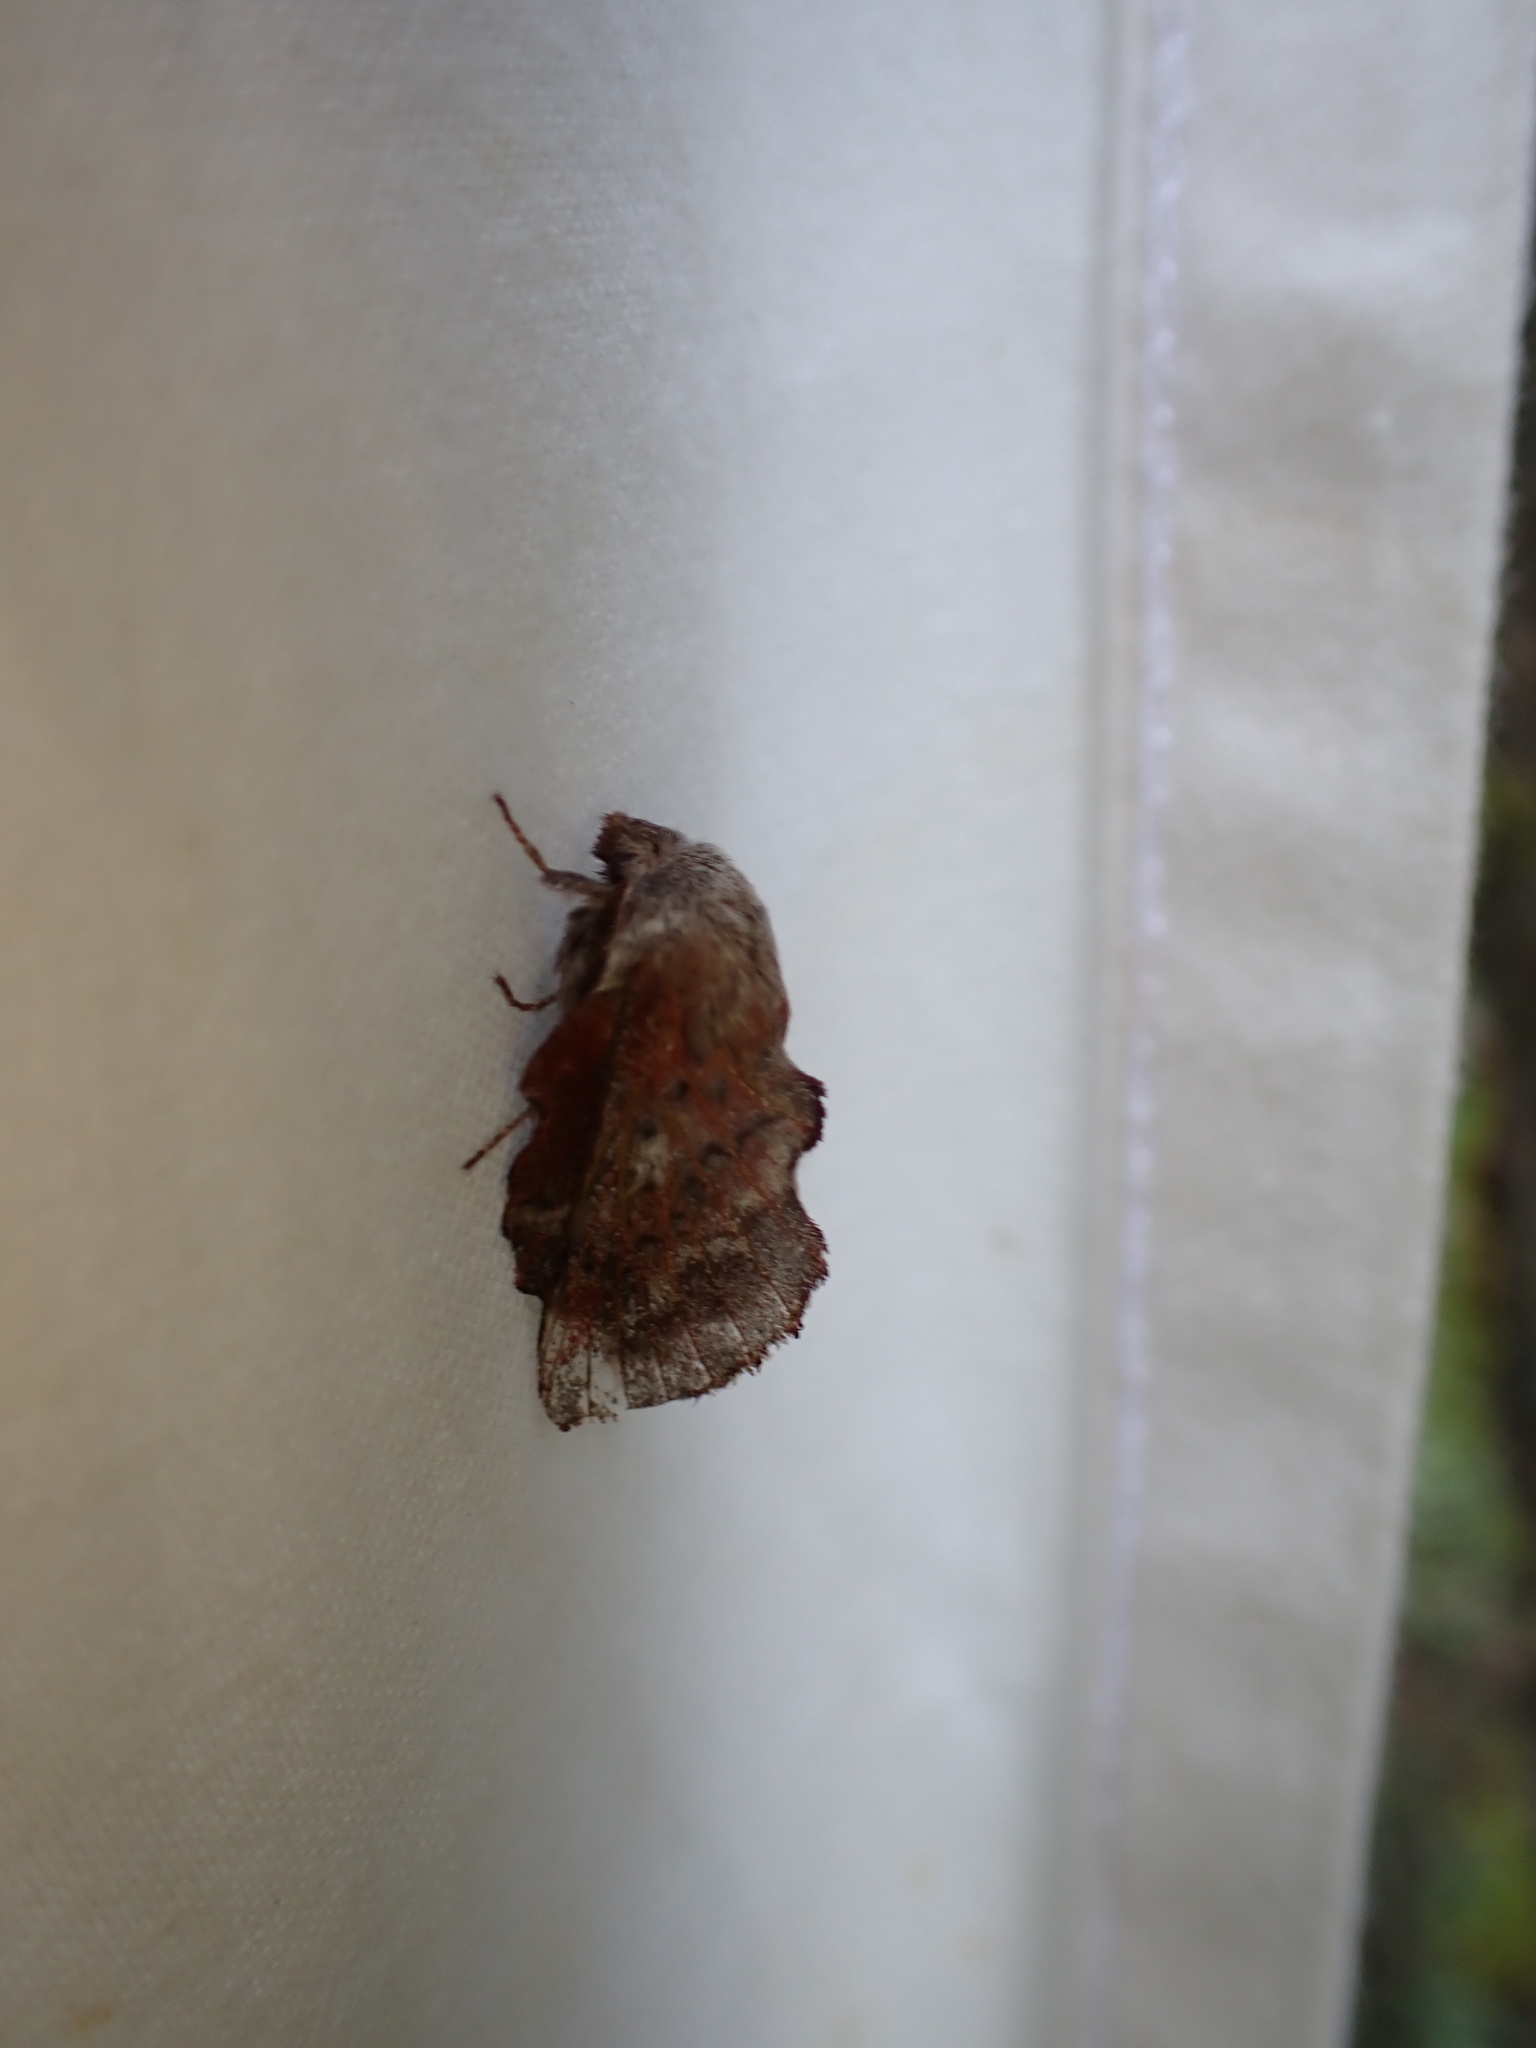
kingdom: Animalia
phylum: Arthropoda
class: Insecta
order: Lepidoptera
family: Lasiocampidae
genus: Phyllodesma
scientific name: Phyllodesma americana
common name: American lappet moth
